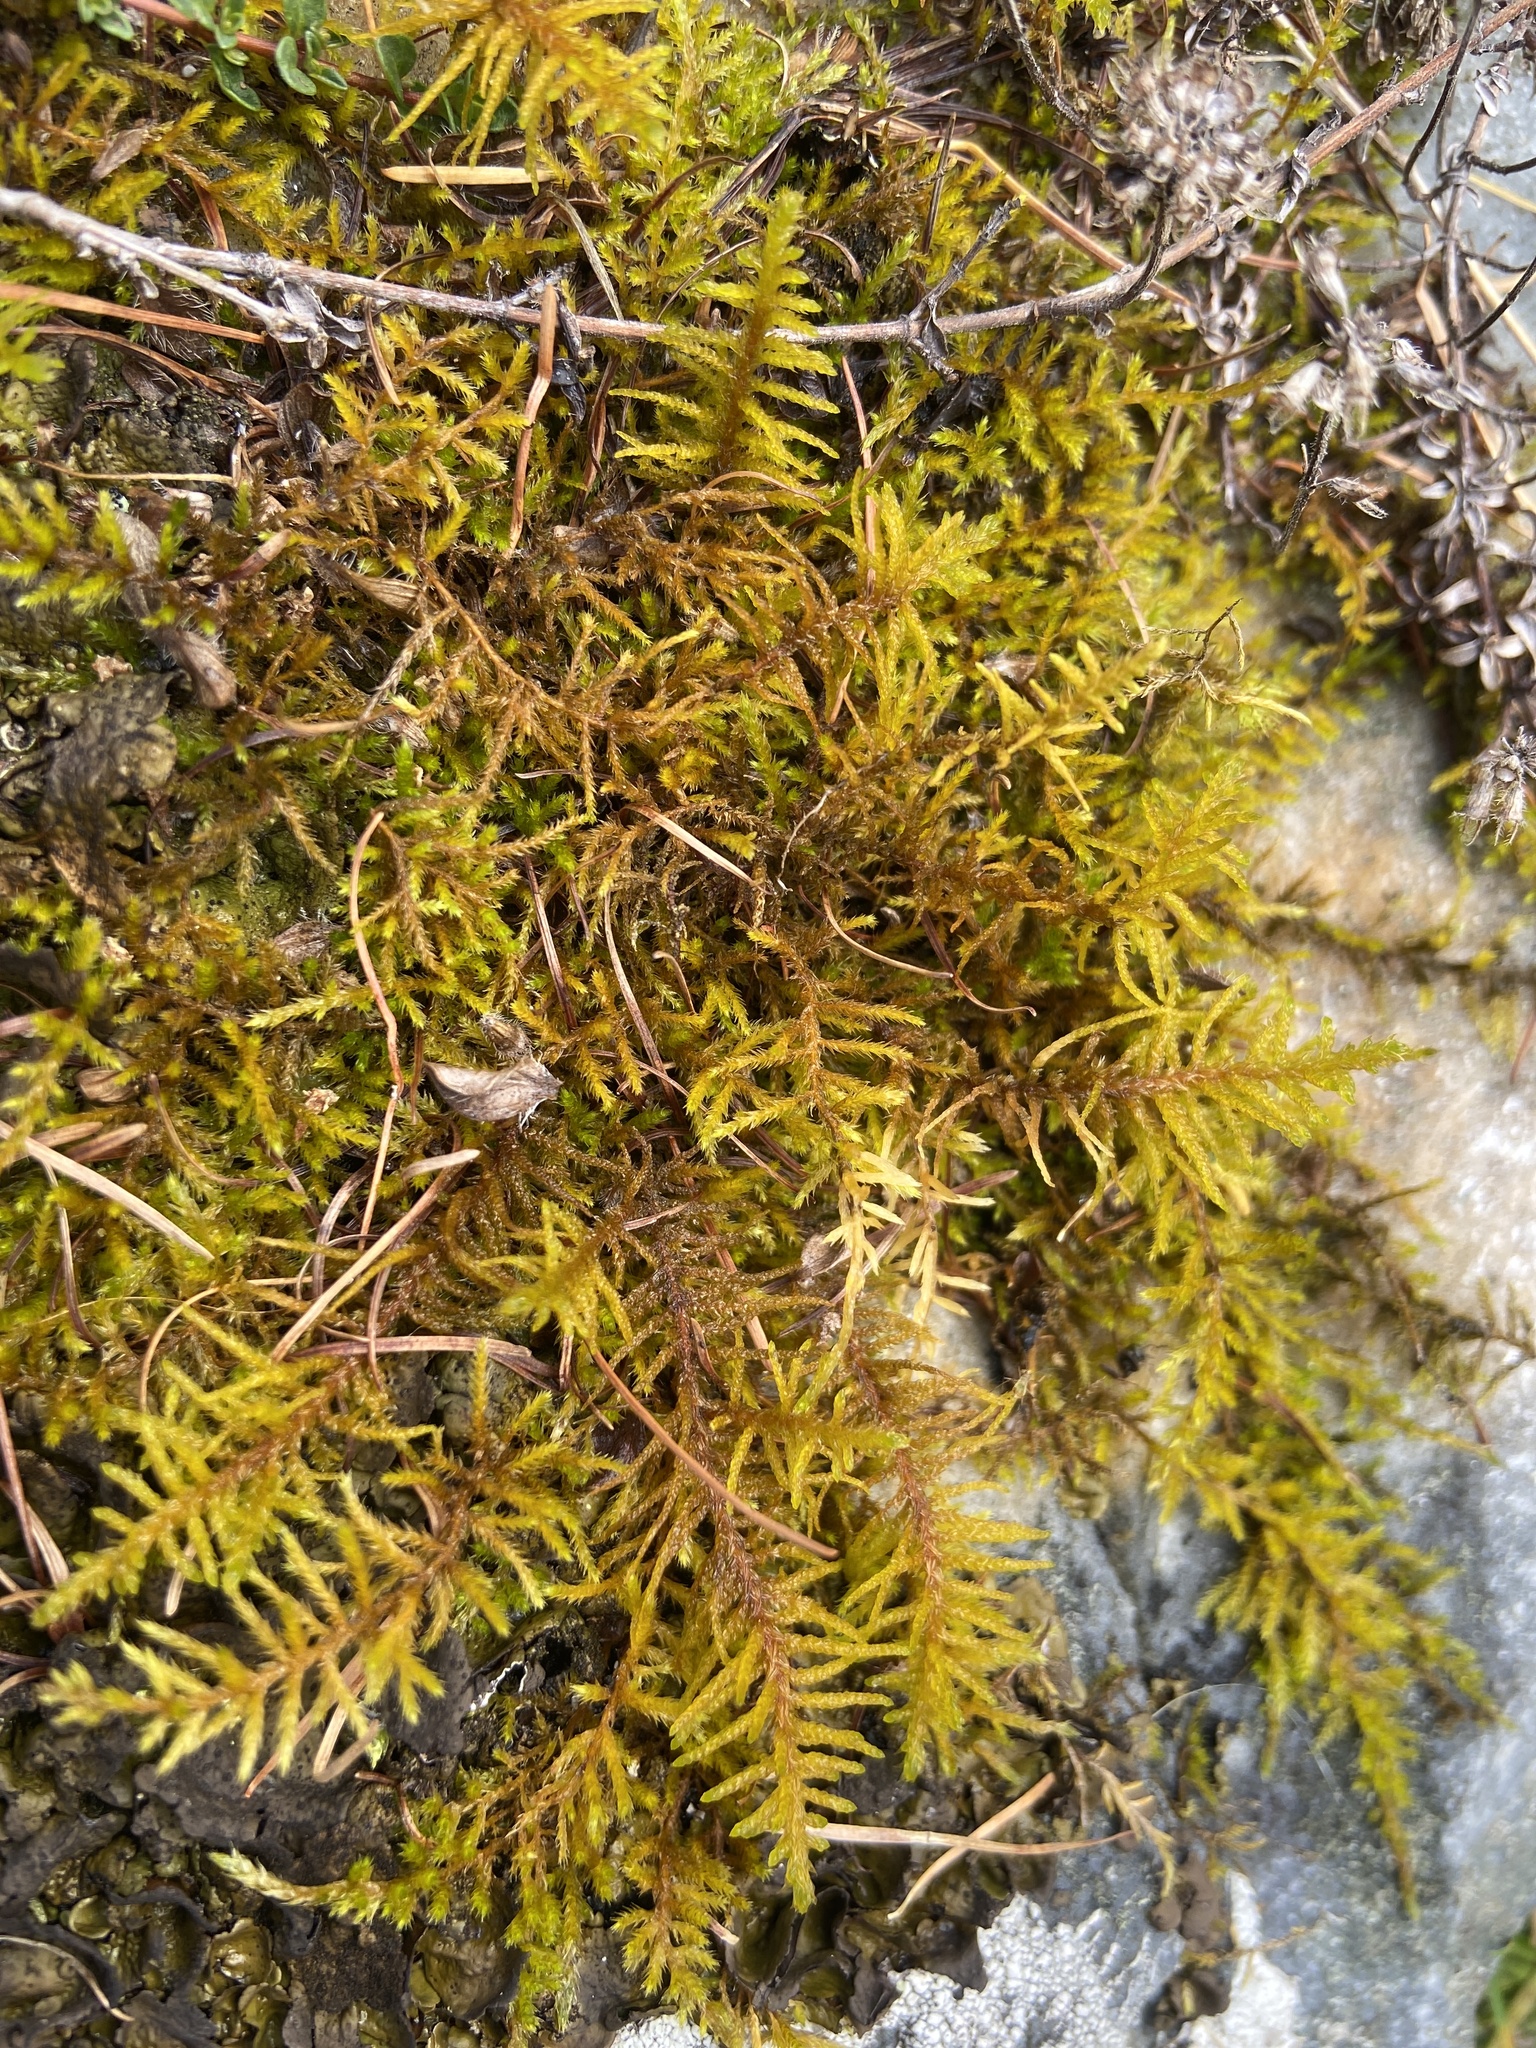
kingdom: Plantae
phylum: Bryophyta
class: Bryopsida
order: Hypnales
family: Thuidiaceae
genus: Abietinella
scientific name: Abietinella abietina
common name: Wiry fern moss
